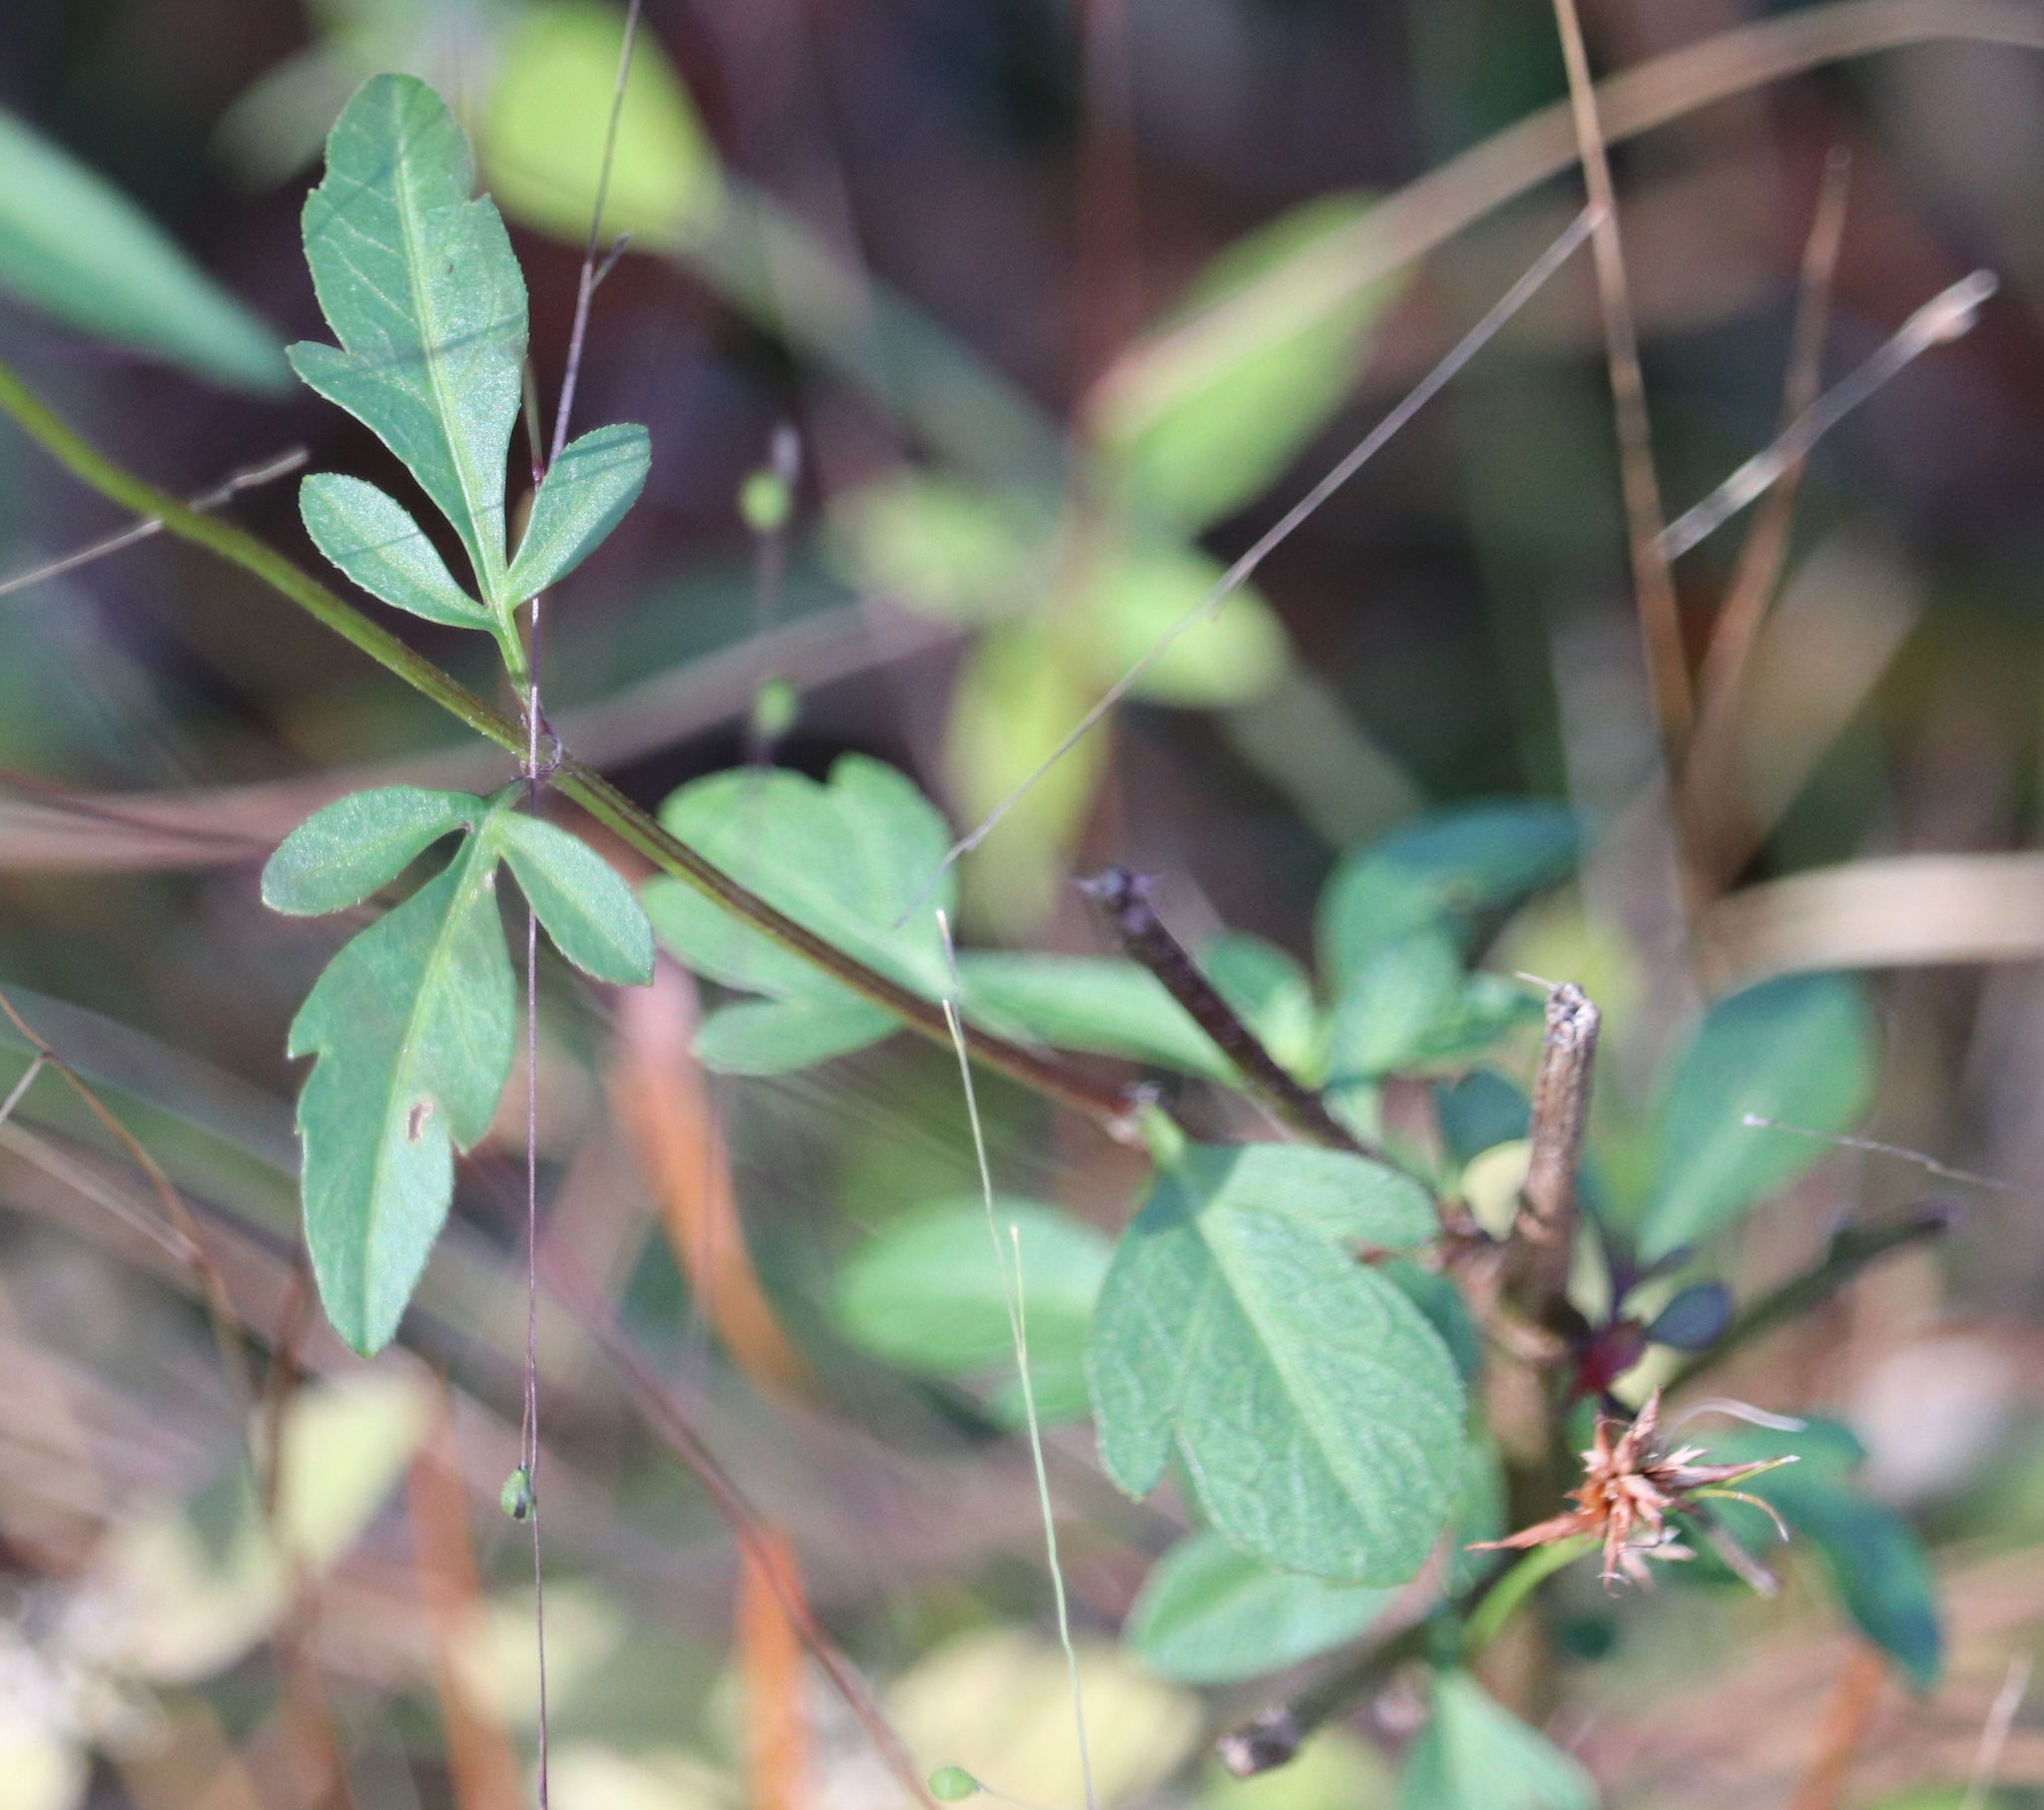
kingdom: Plantae
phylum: Tracheophyta
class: Magnoliopsida
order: Asterales
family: Asteraceae
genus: Bidens
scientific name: Bidens mitis
